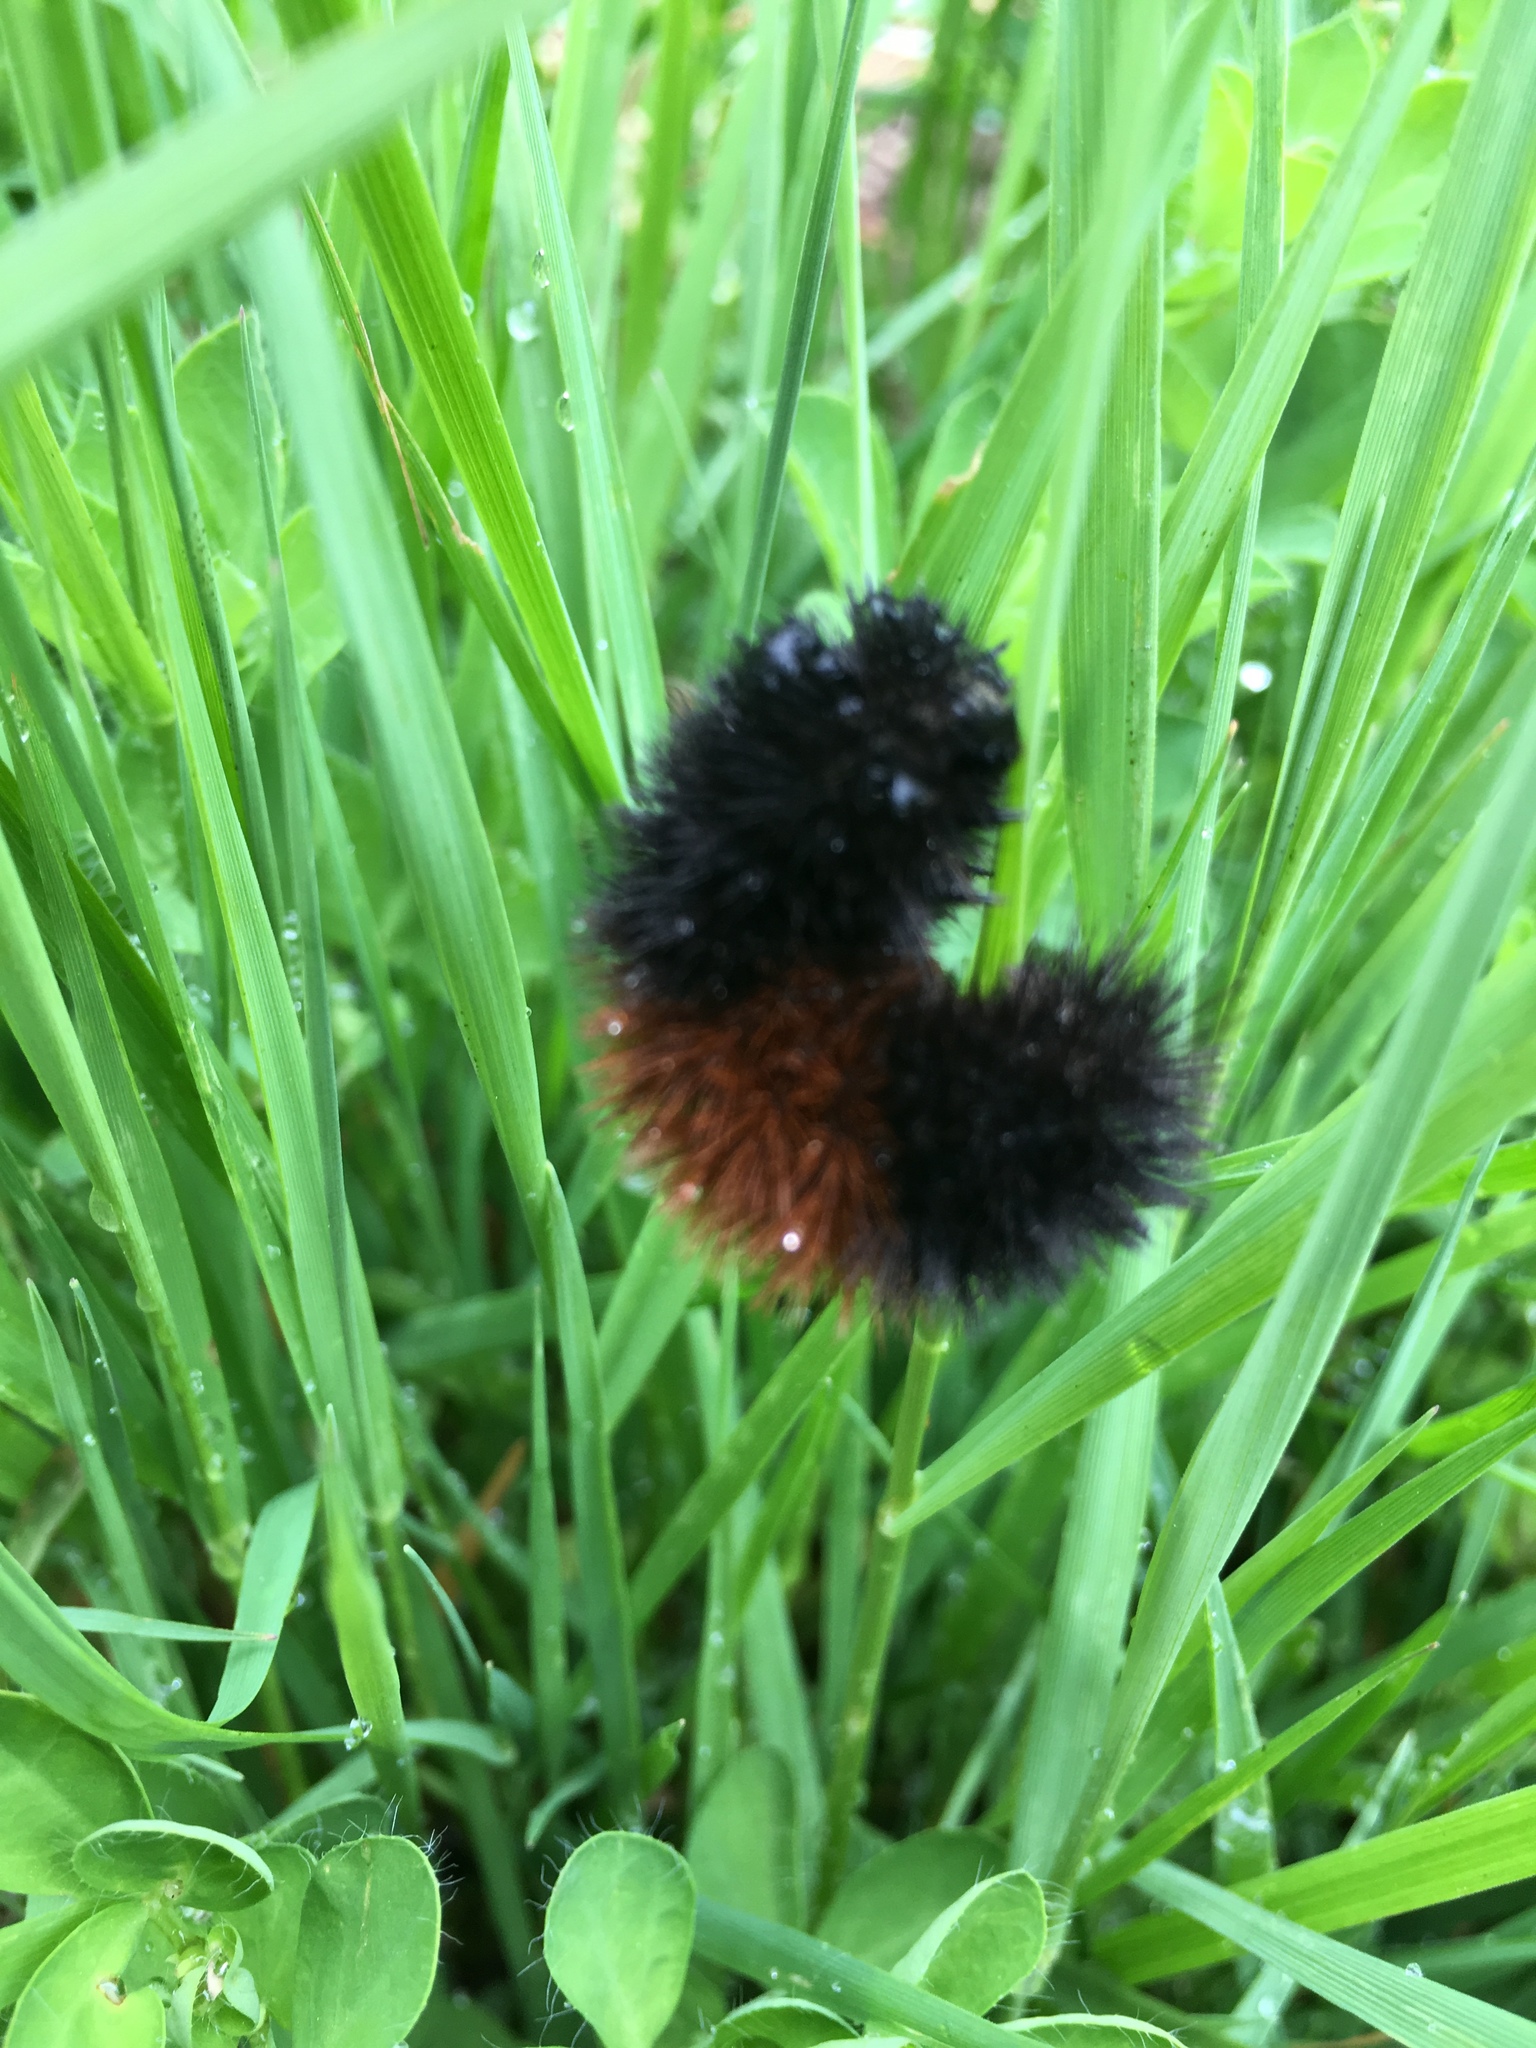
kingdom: Animalia
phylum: Arthropoda
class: Insecta
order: Lepidoptera
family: Erebidae
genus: Pyrrharctia
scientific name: Pyrrharctia isabella
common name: Isabella tiger moth
